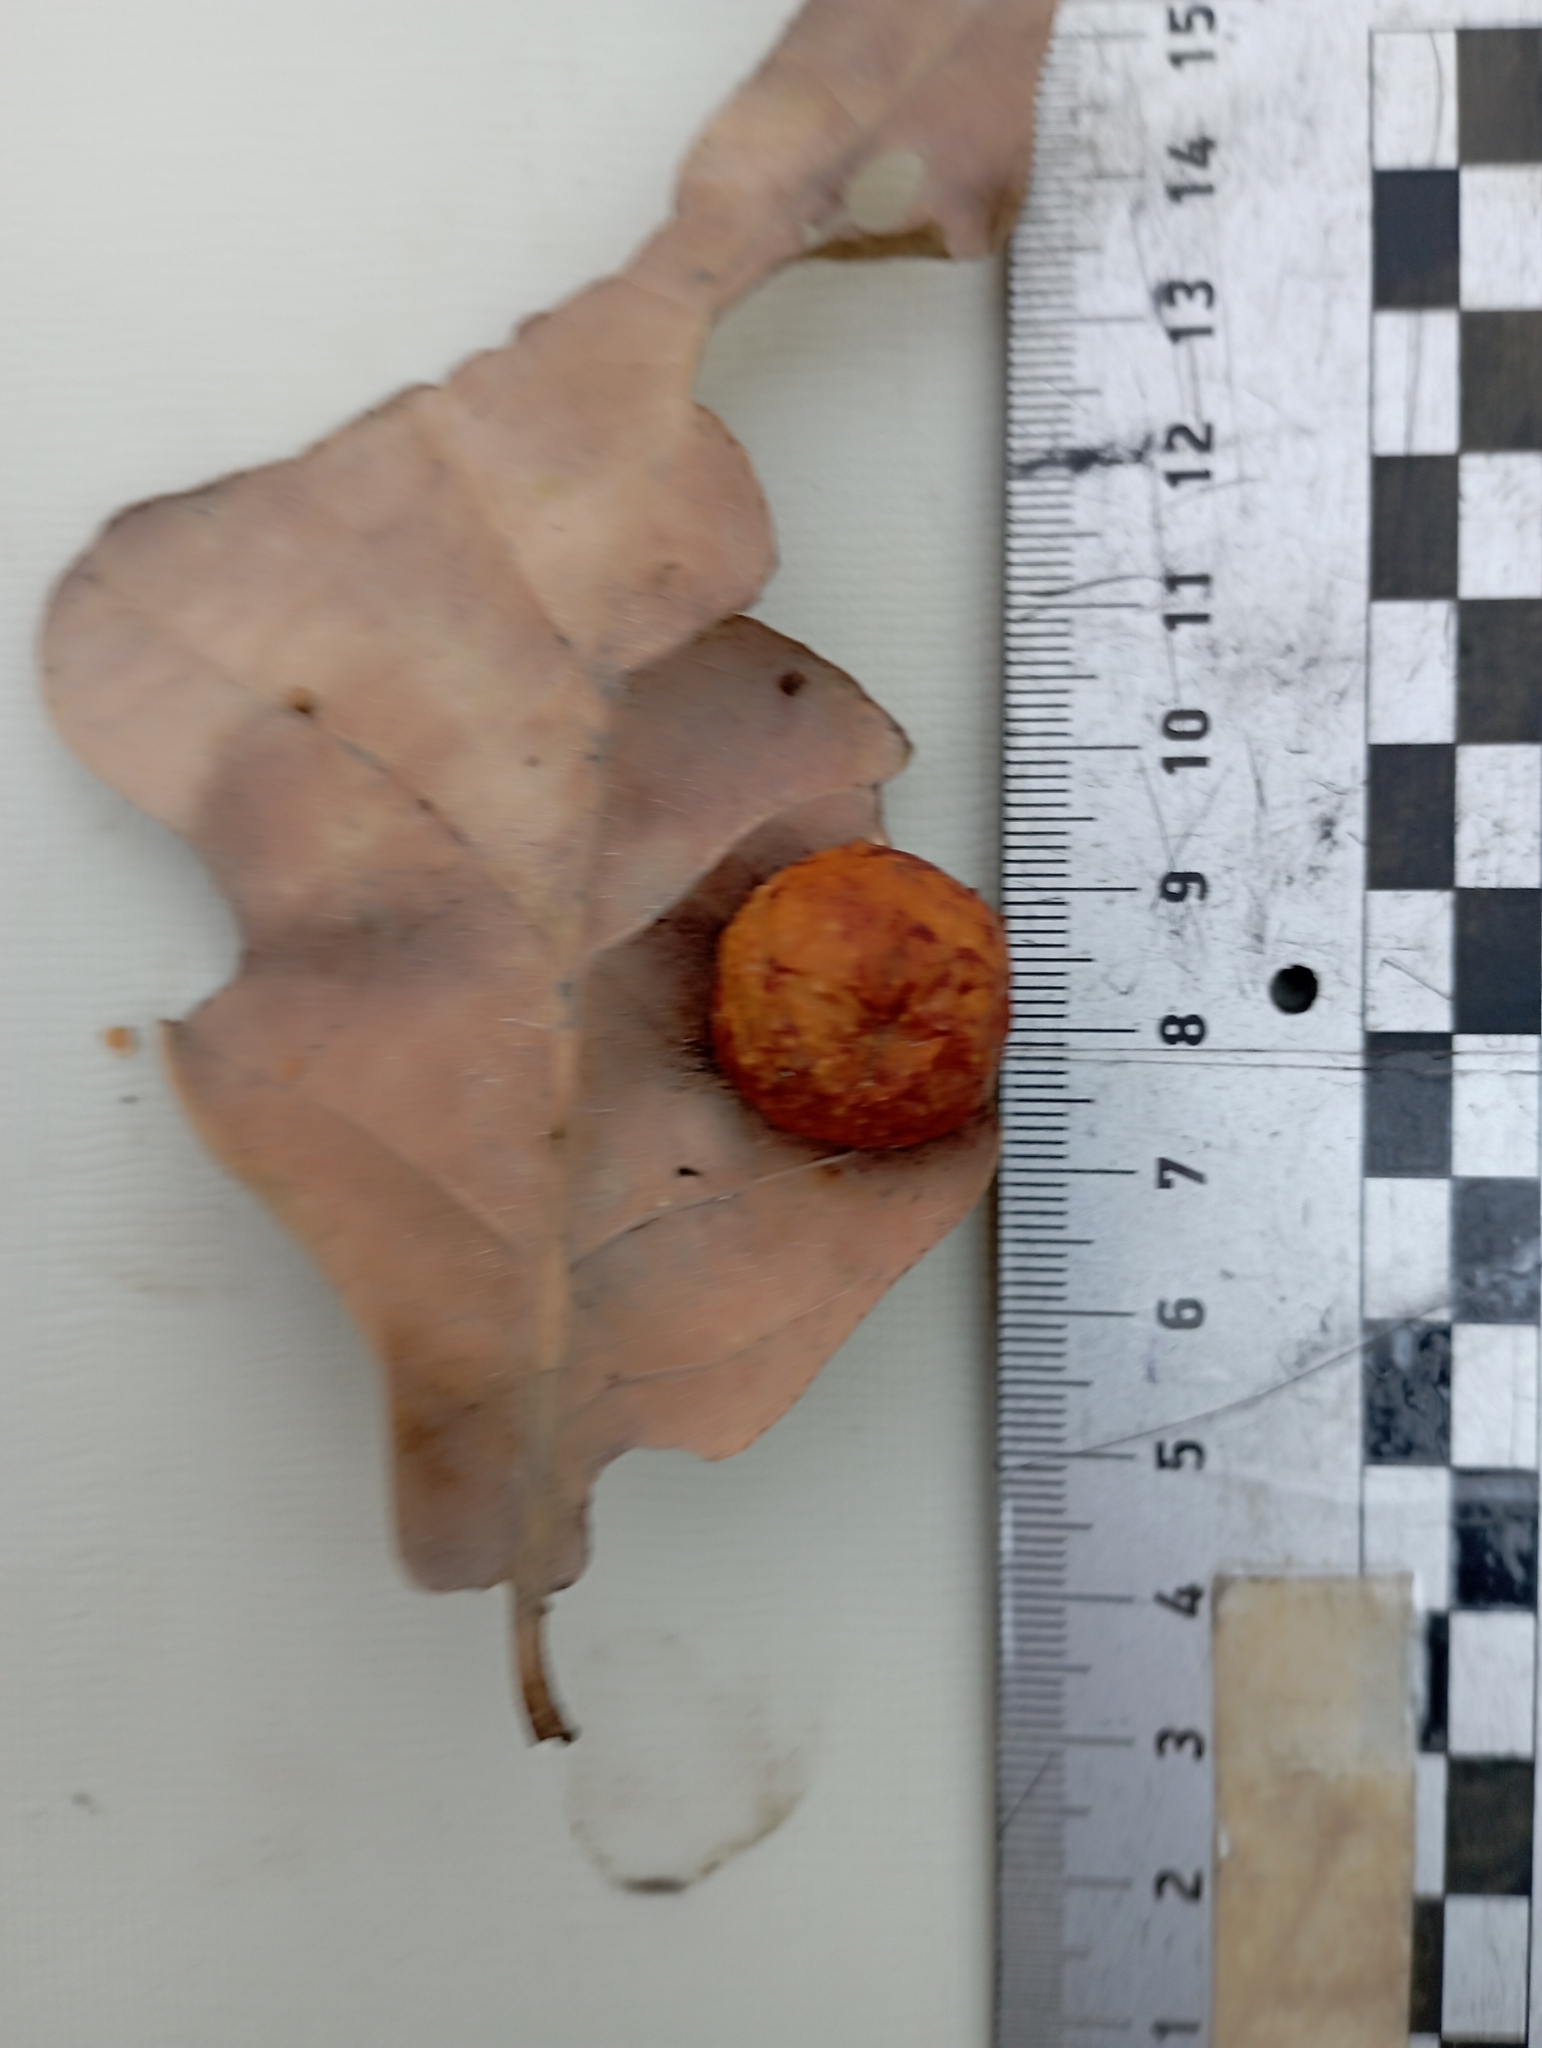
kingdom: Animalia
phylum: Arthropoda
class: Insecta
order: Hymenoptera
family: Cynipidae
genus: Cynips
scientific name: Cynips quercusfolii
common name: Cherry gall
